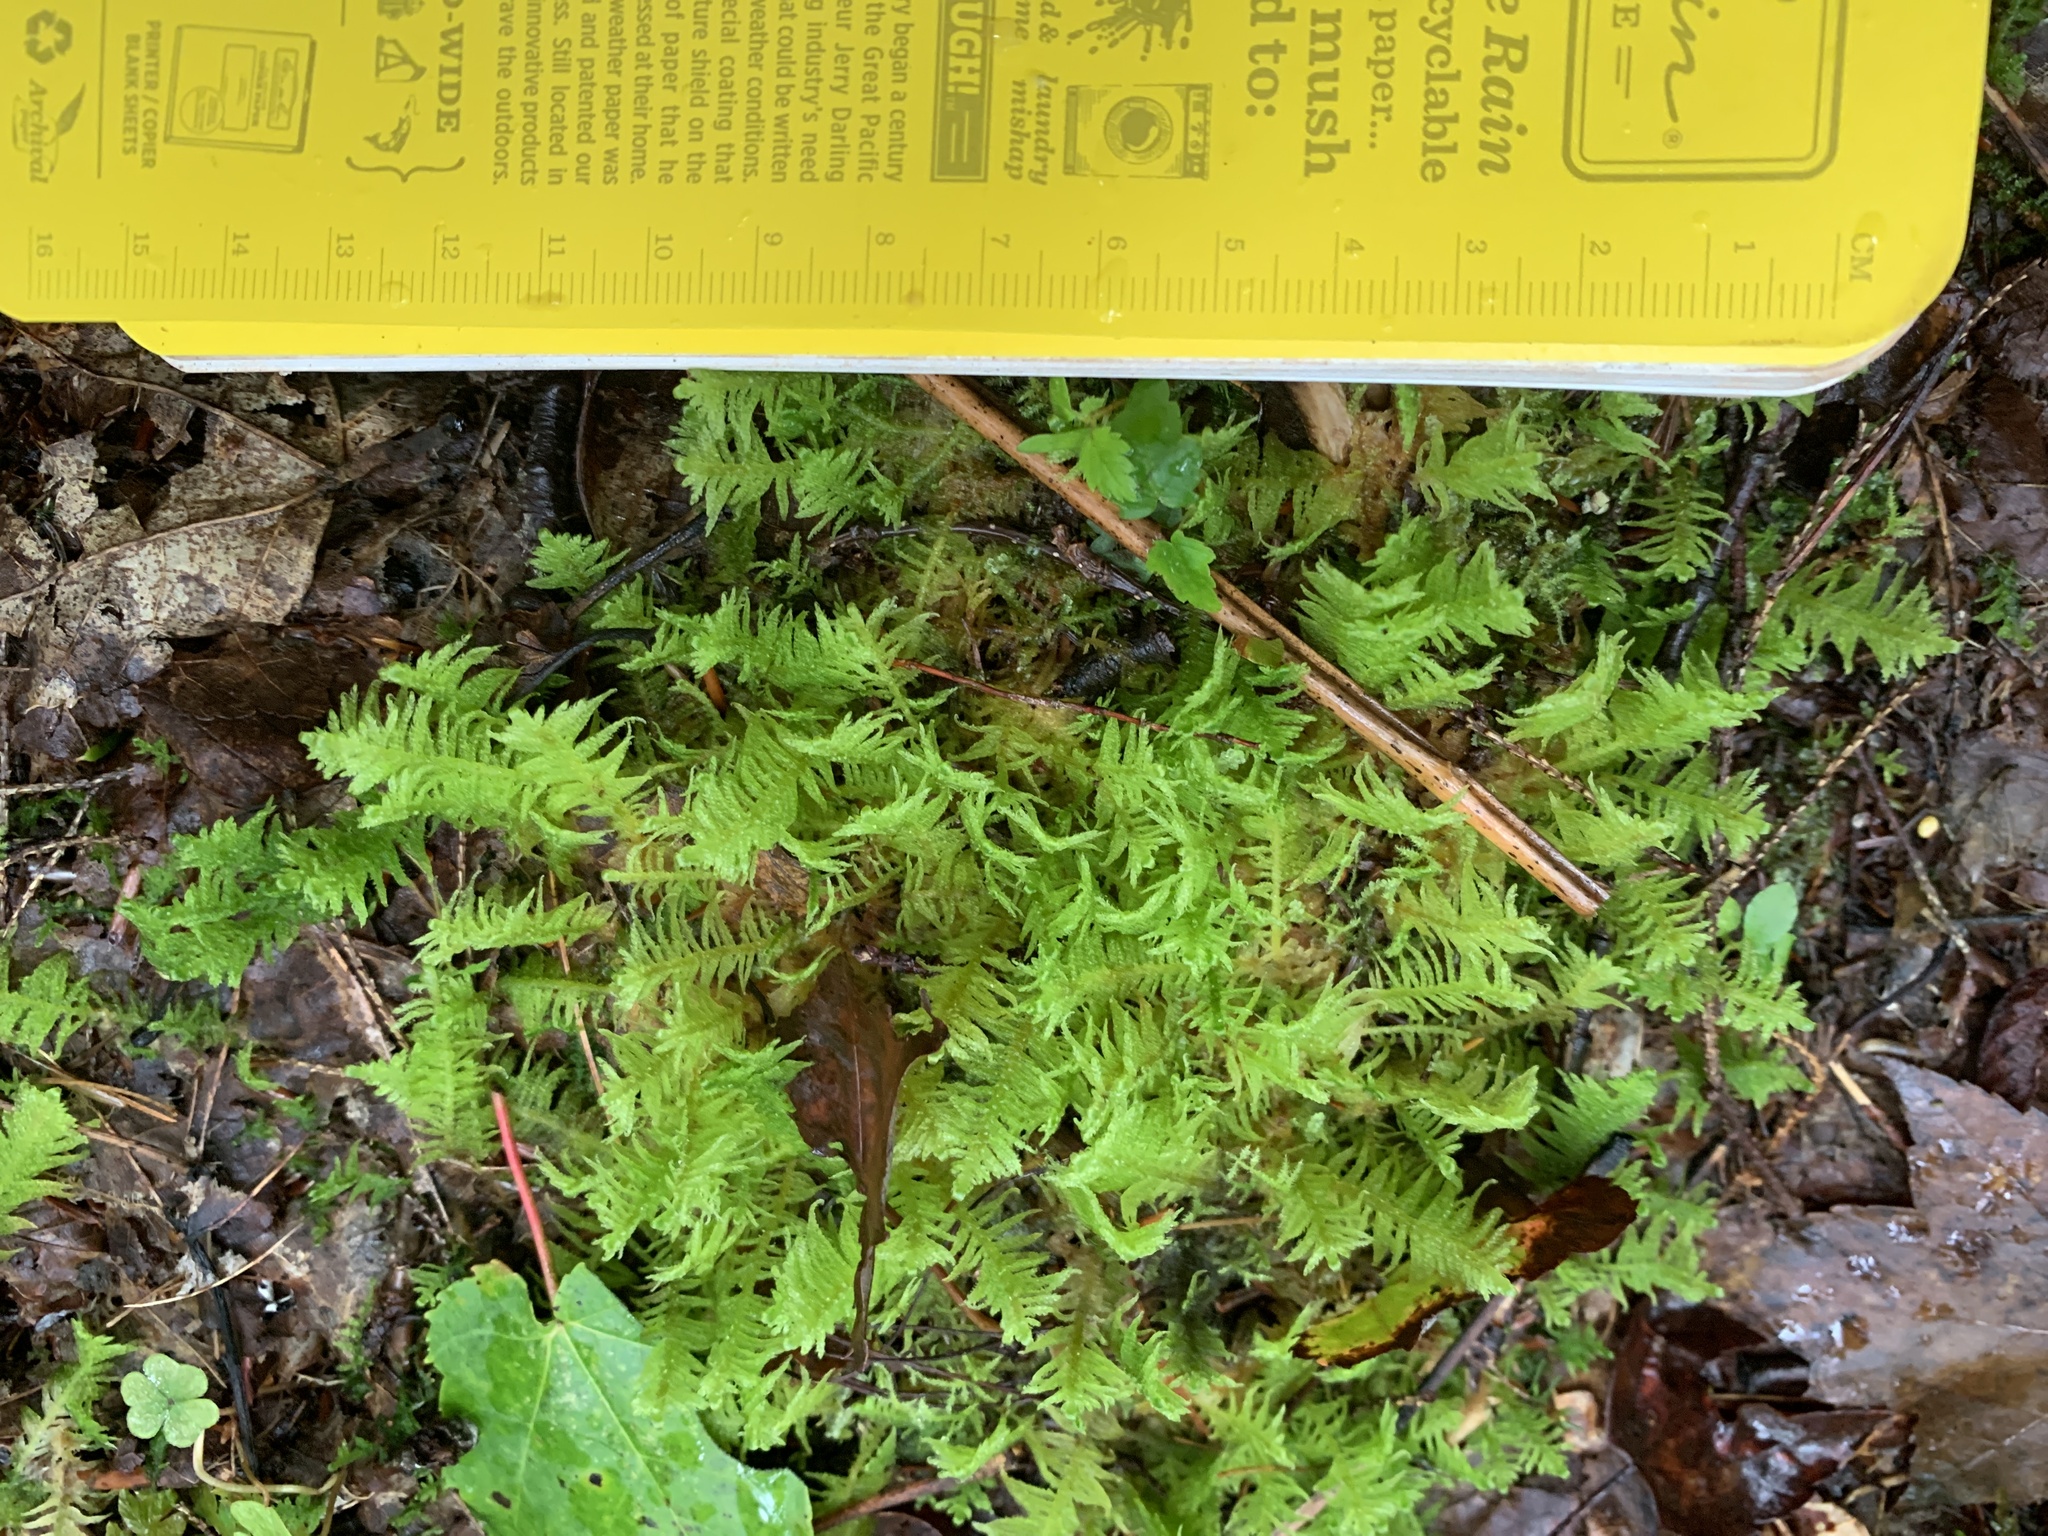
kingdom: Plantae
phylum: Bryophyta
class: Bryopsida
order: Hypnales
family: Pylaisiaceae
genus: Ptilium
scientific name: Ptilium crista-castrensis
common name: Knight's plume moss
